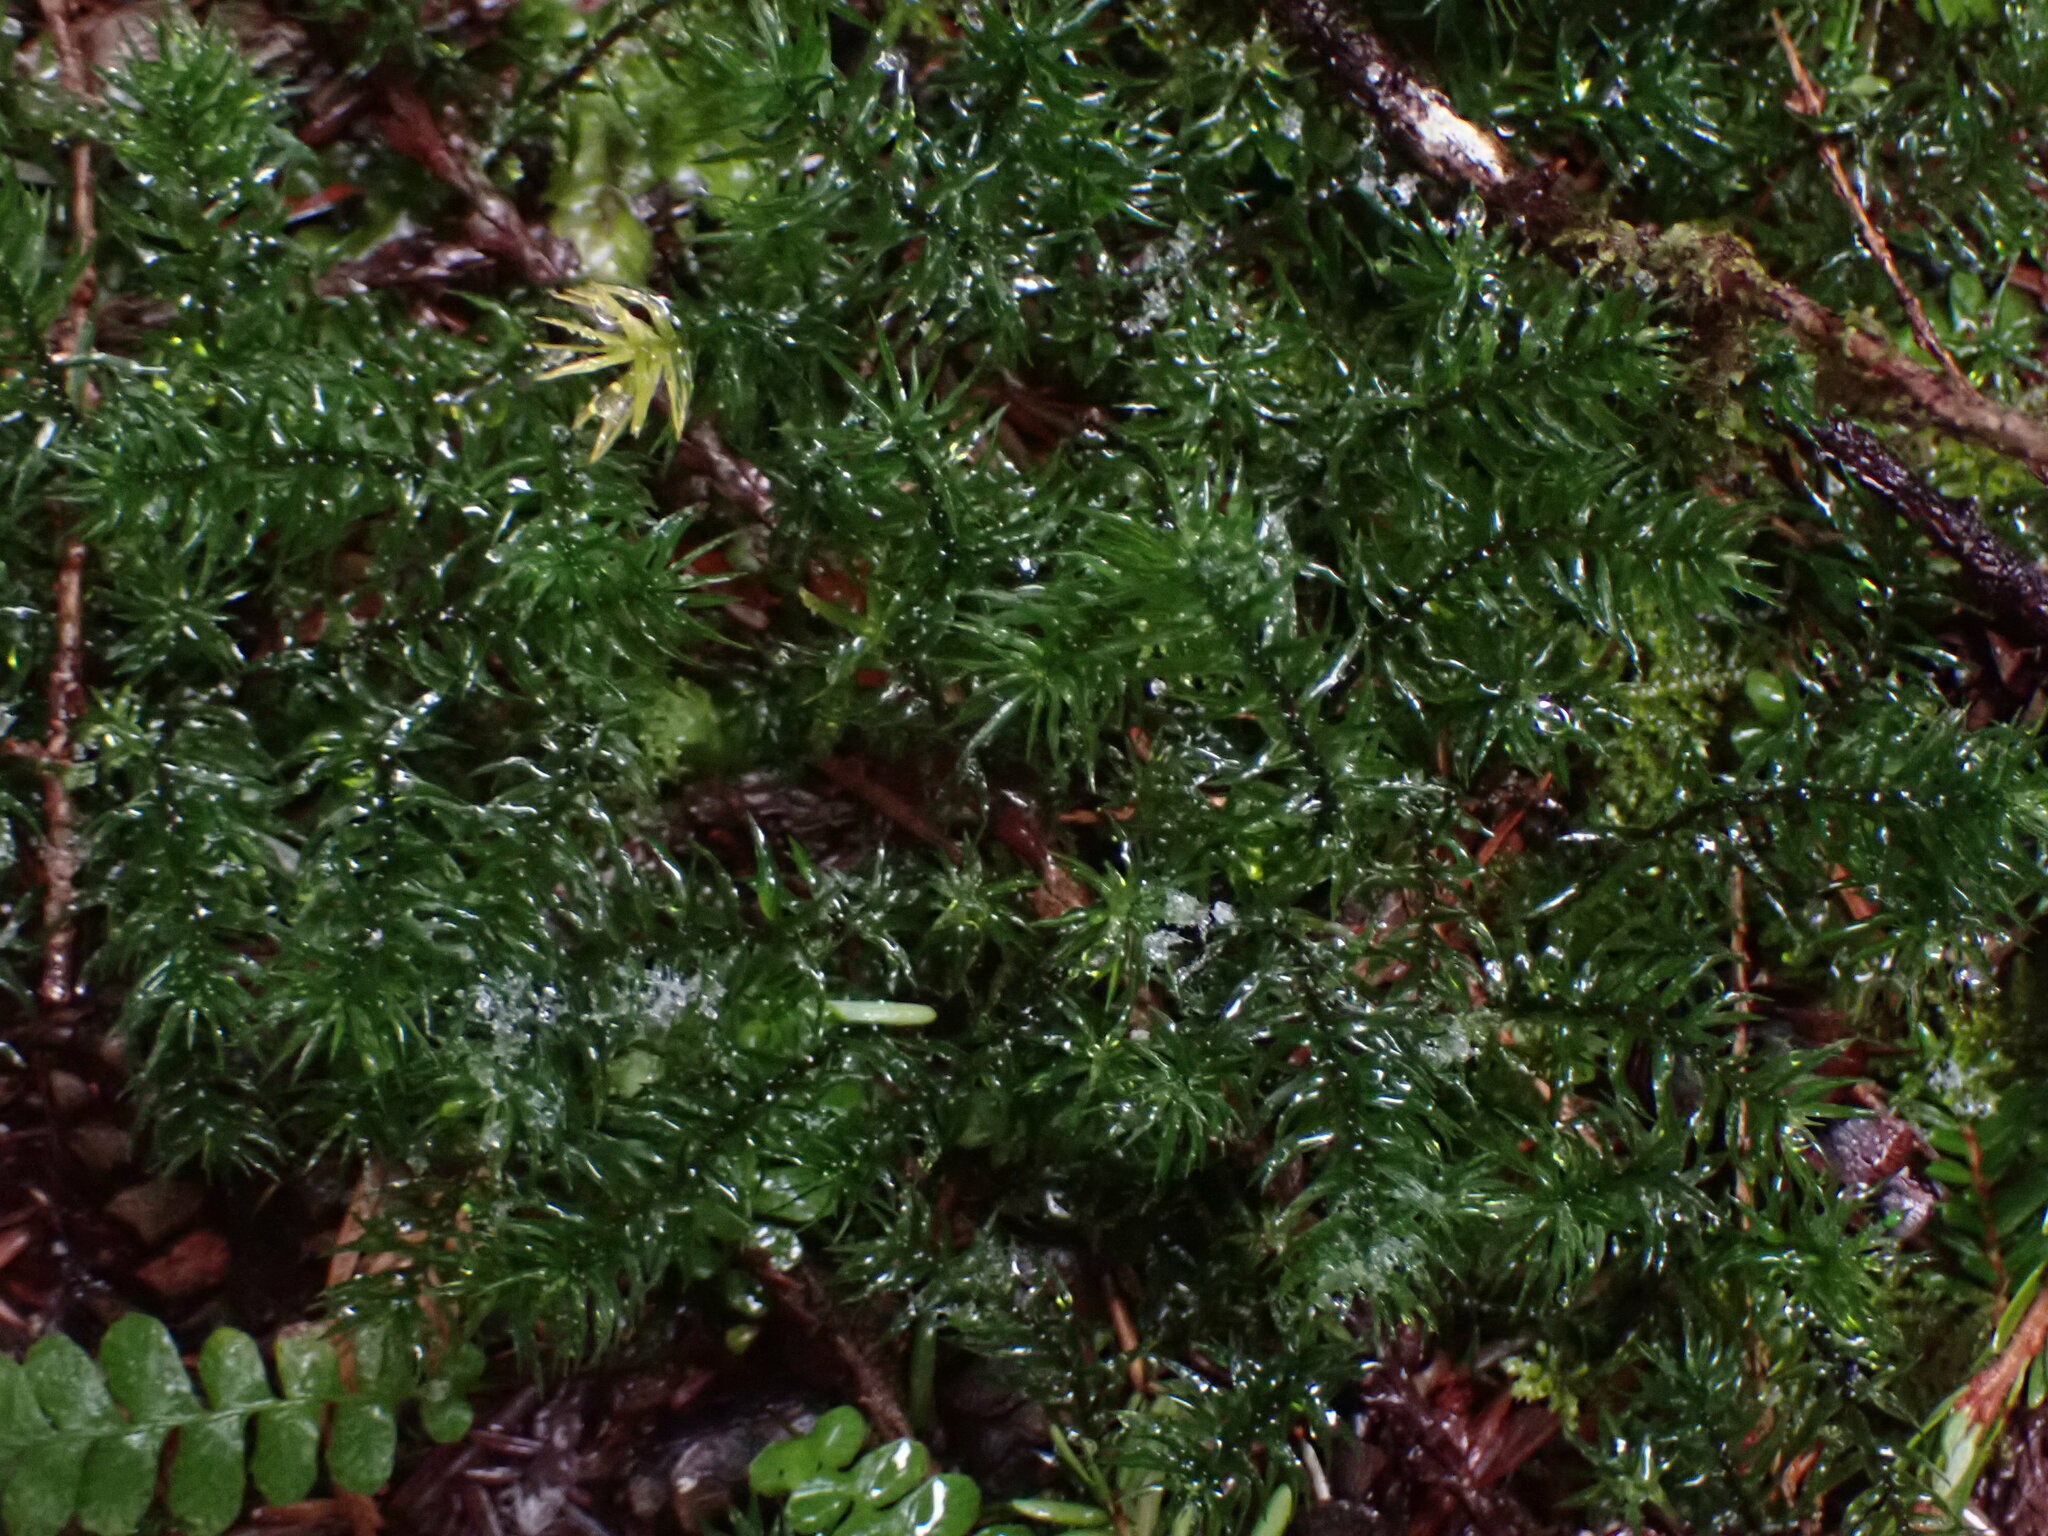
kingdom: Plantae
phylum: Bryophyta
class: Polytrichopsida
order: Polytrichales
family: Polytrichaceae
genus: Pogonatum
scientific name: Pogonatum contortum
